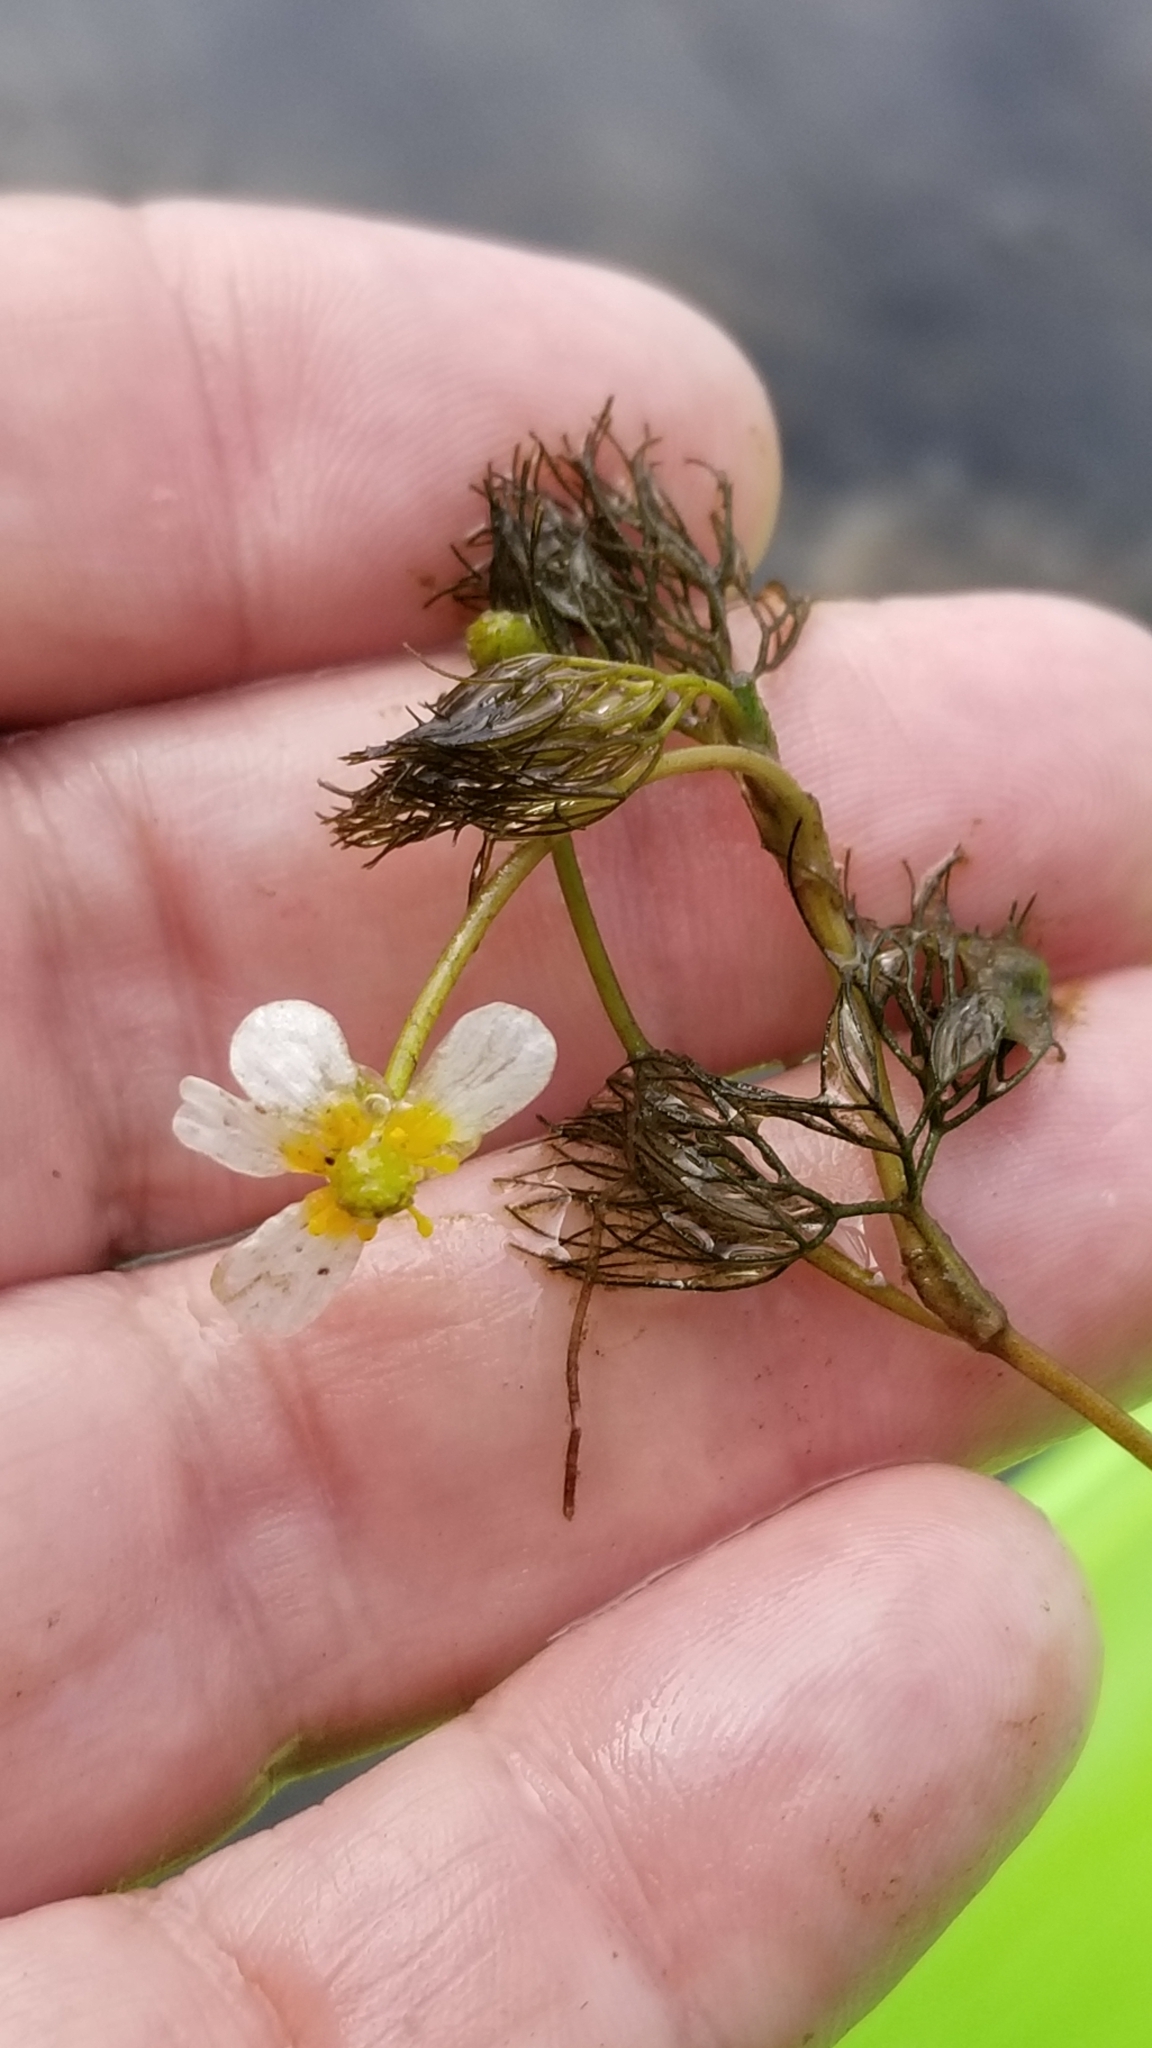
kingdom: Plantae
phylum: Tracheophyta
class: Magnoliopsida
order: Ranunculales
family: Ranunculaceae
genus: Ranunculus
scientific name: Ranunculus aquatilis
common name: Common water-crowfoot
